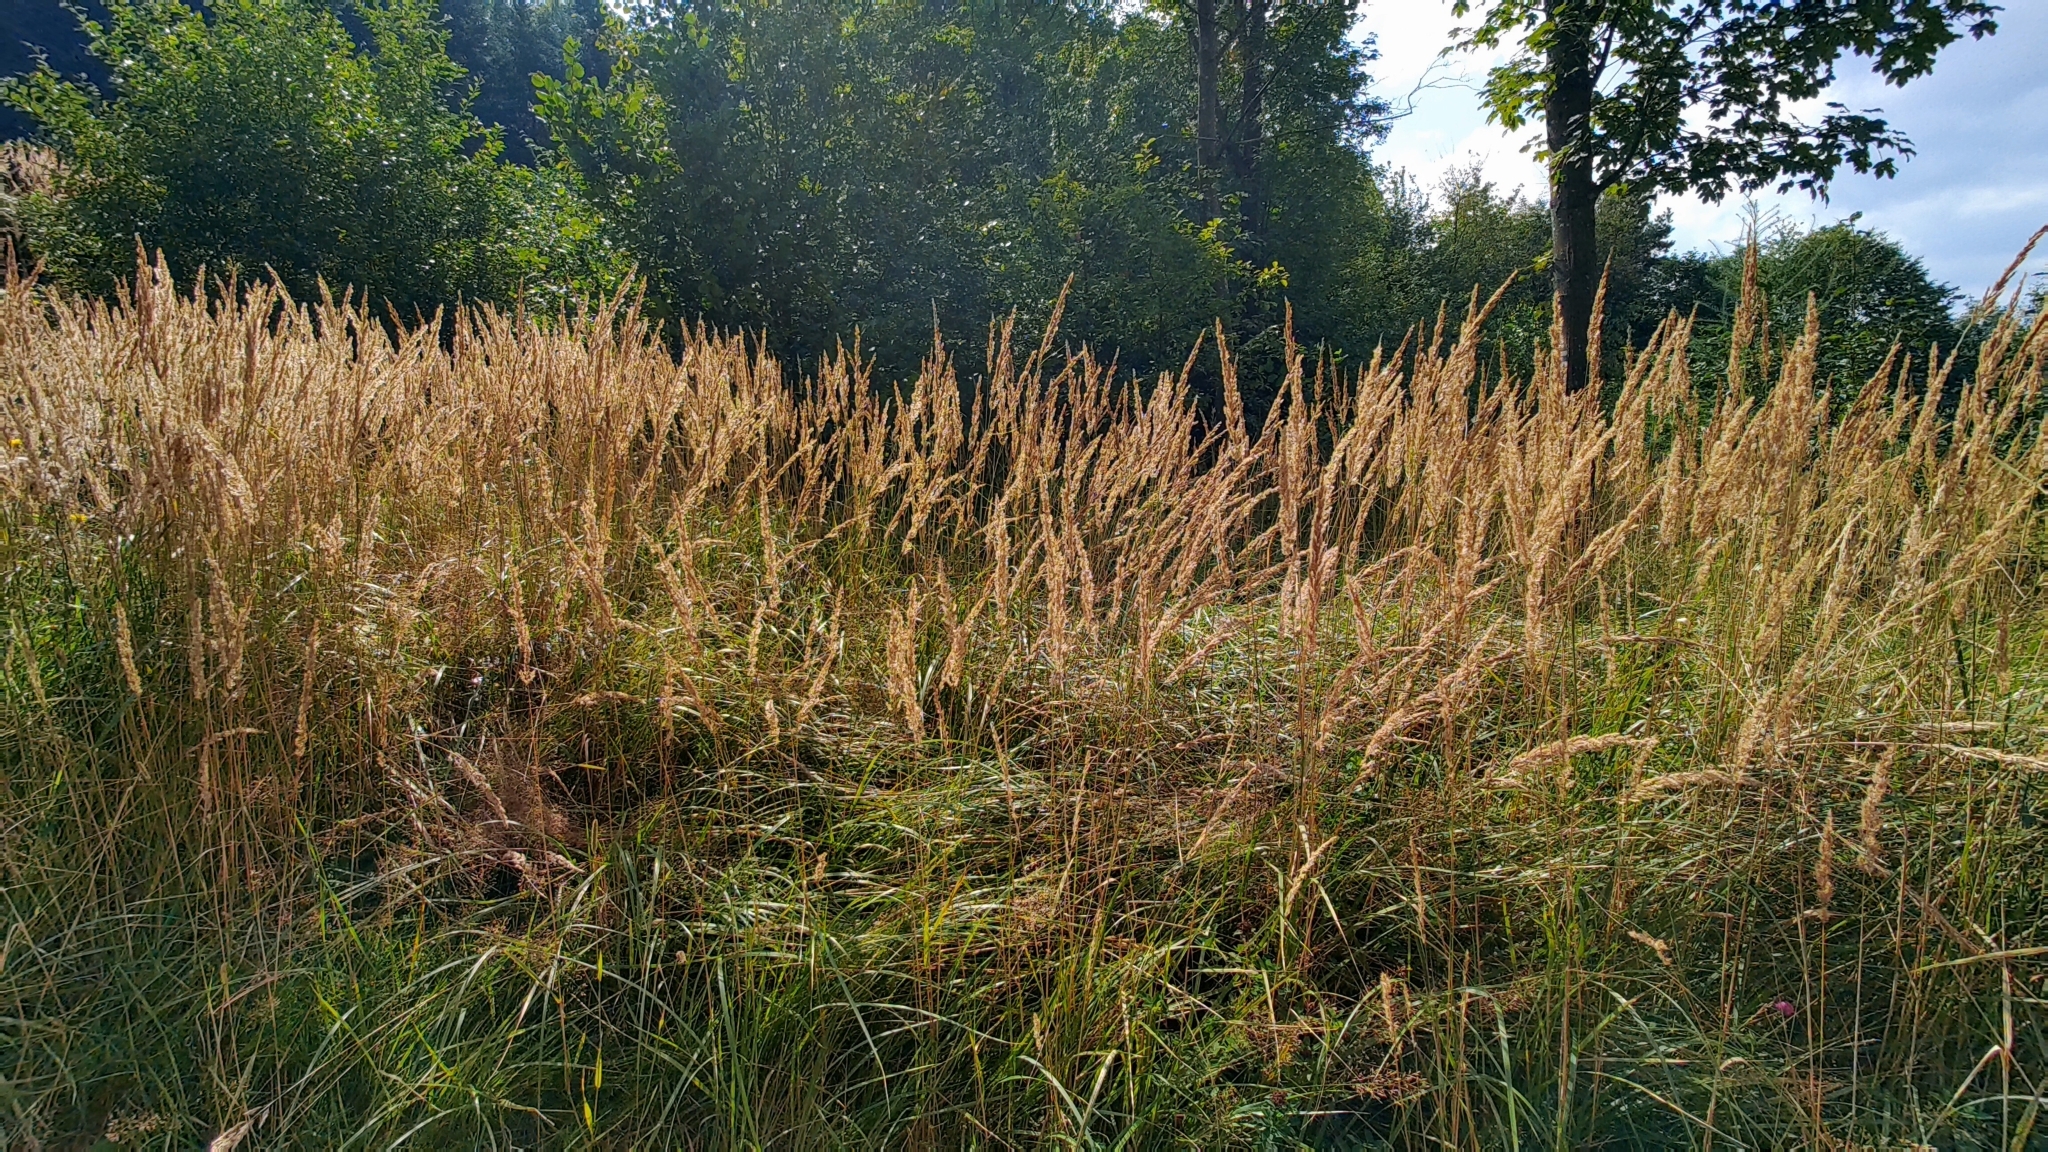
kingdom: Plantae
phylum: Tracheophyta
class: Liliopsida
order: Poales
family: Poaceae
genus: Calamagrostis
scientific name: Calamagrostis epigejos
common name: Wood small-reed
